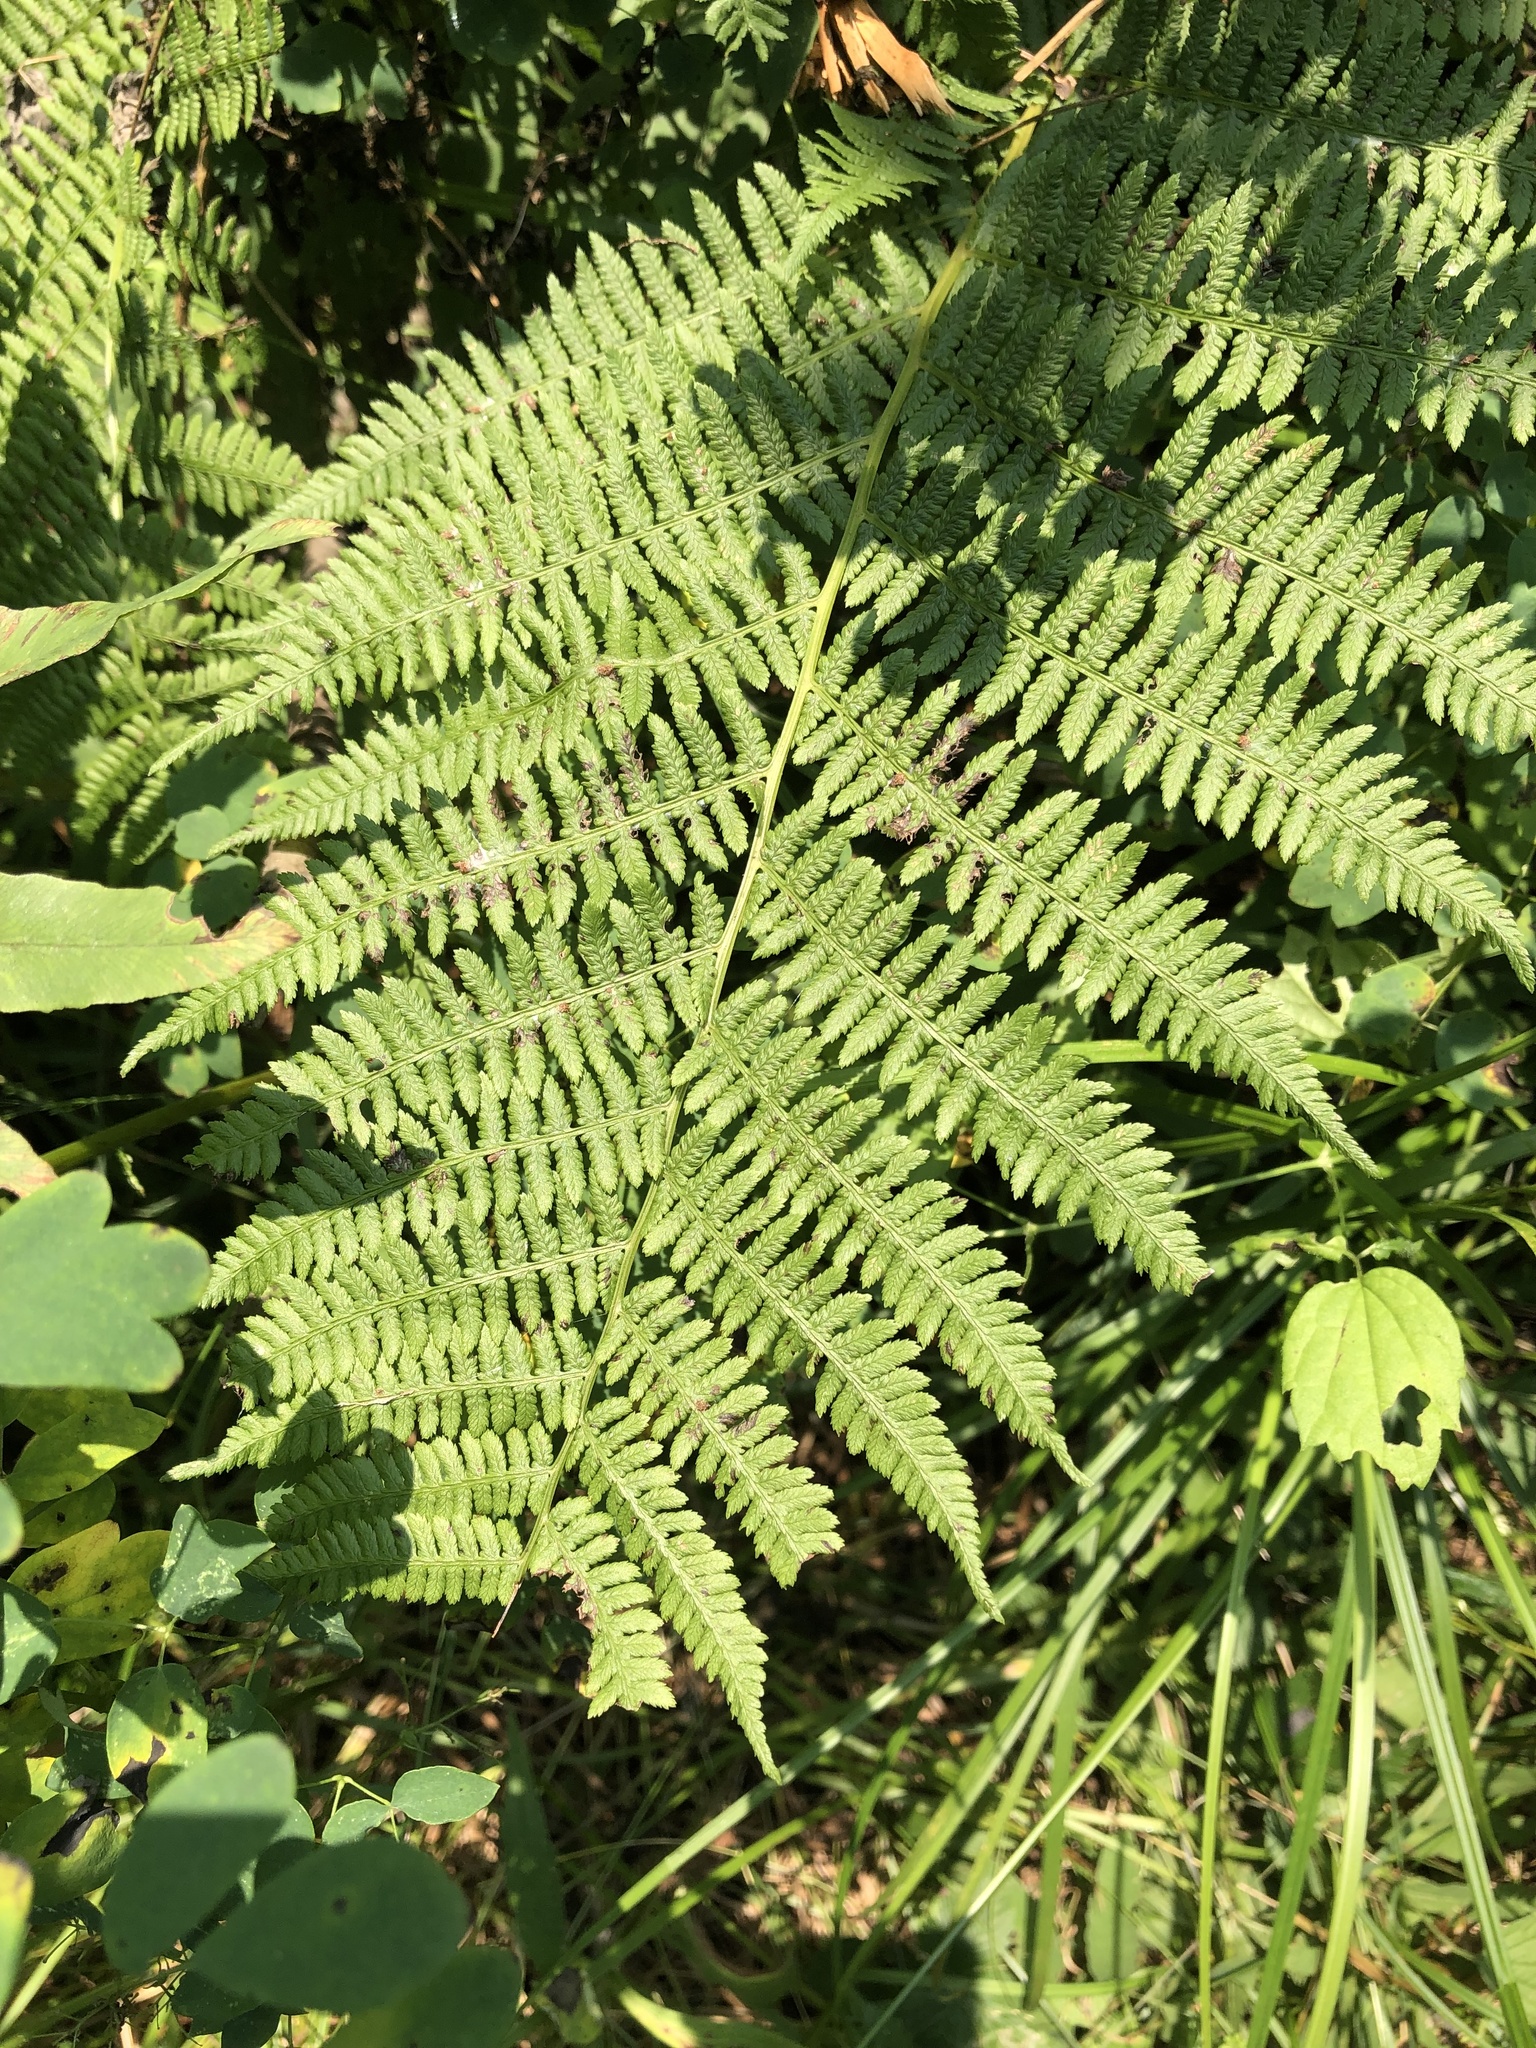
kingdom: Plantae
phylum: Tracheophyta
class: Polypodiopsida
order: Polypodiales
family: Athyriaceae
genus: Athyrium
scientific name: Athyrium angustum
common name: Northern lady fern
